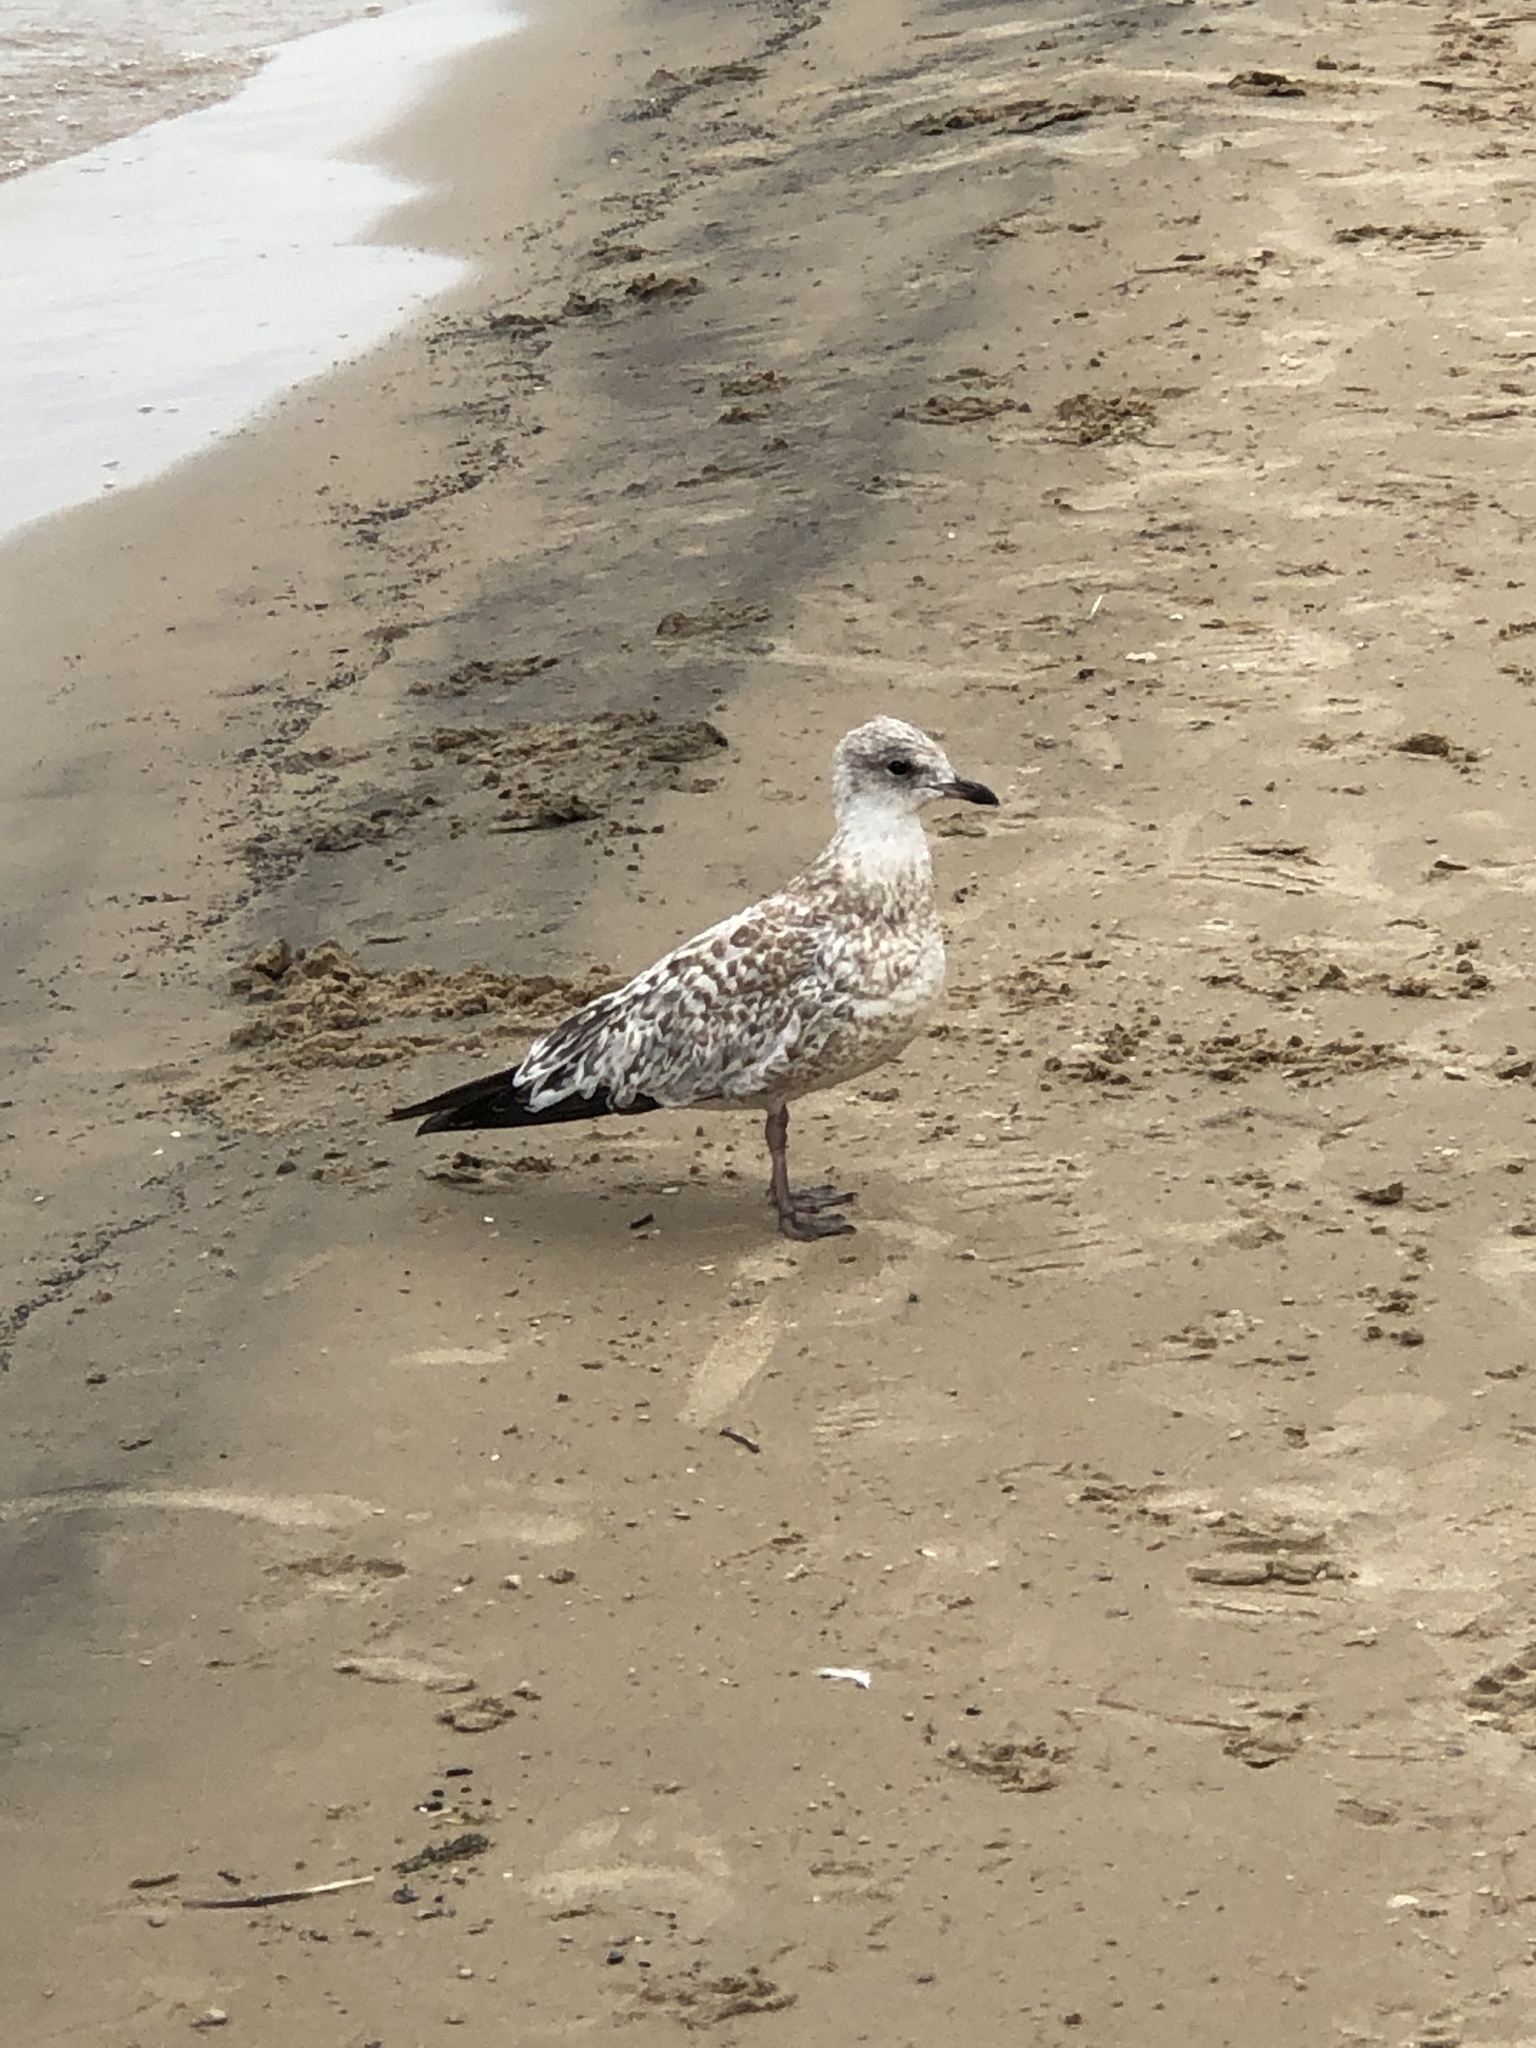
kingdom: Animalia
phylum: Chordata
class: Aves
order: Charadriiformes
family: Laridae
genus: Larus
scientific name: Larus delawarensis
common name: Ring-billed gull
